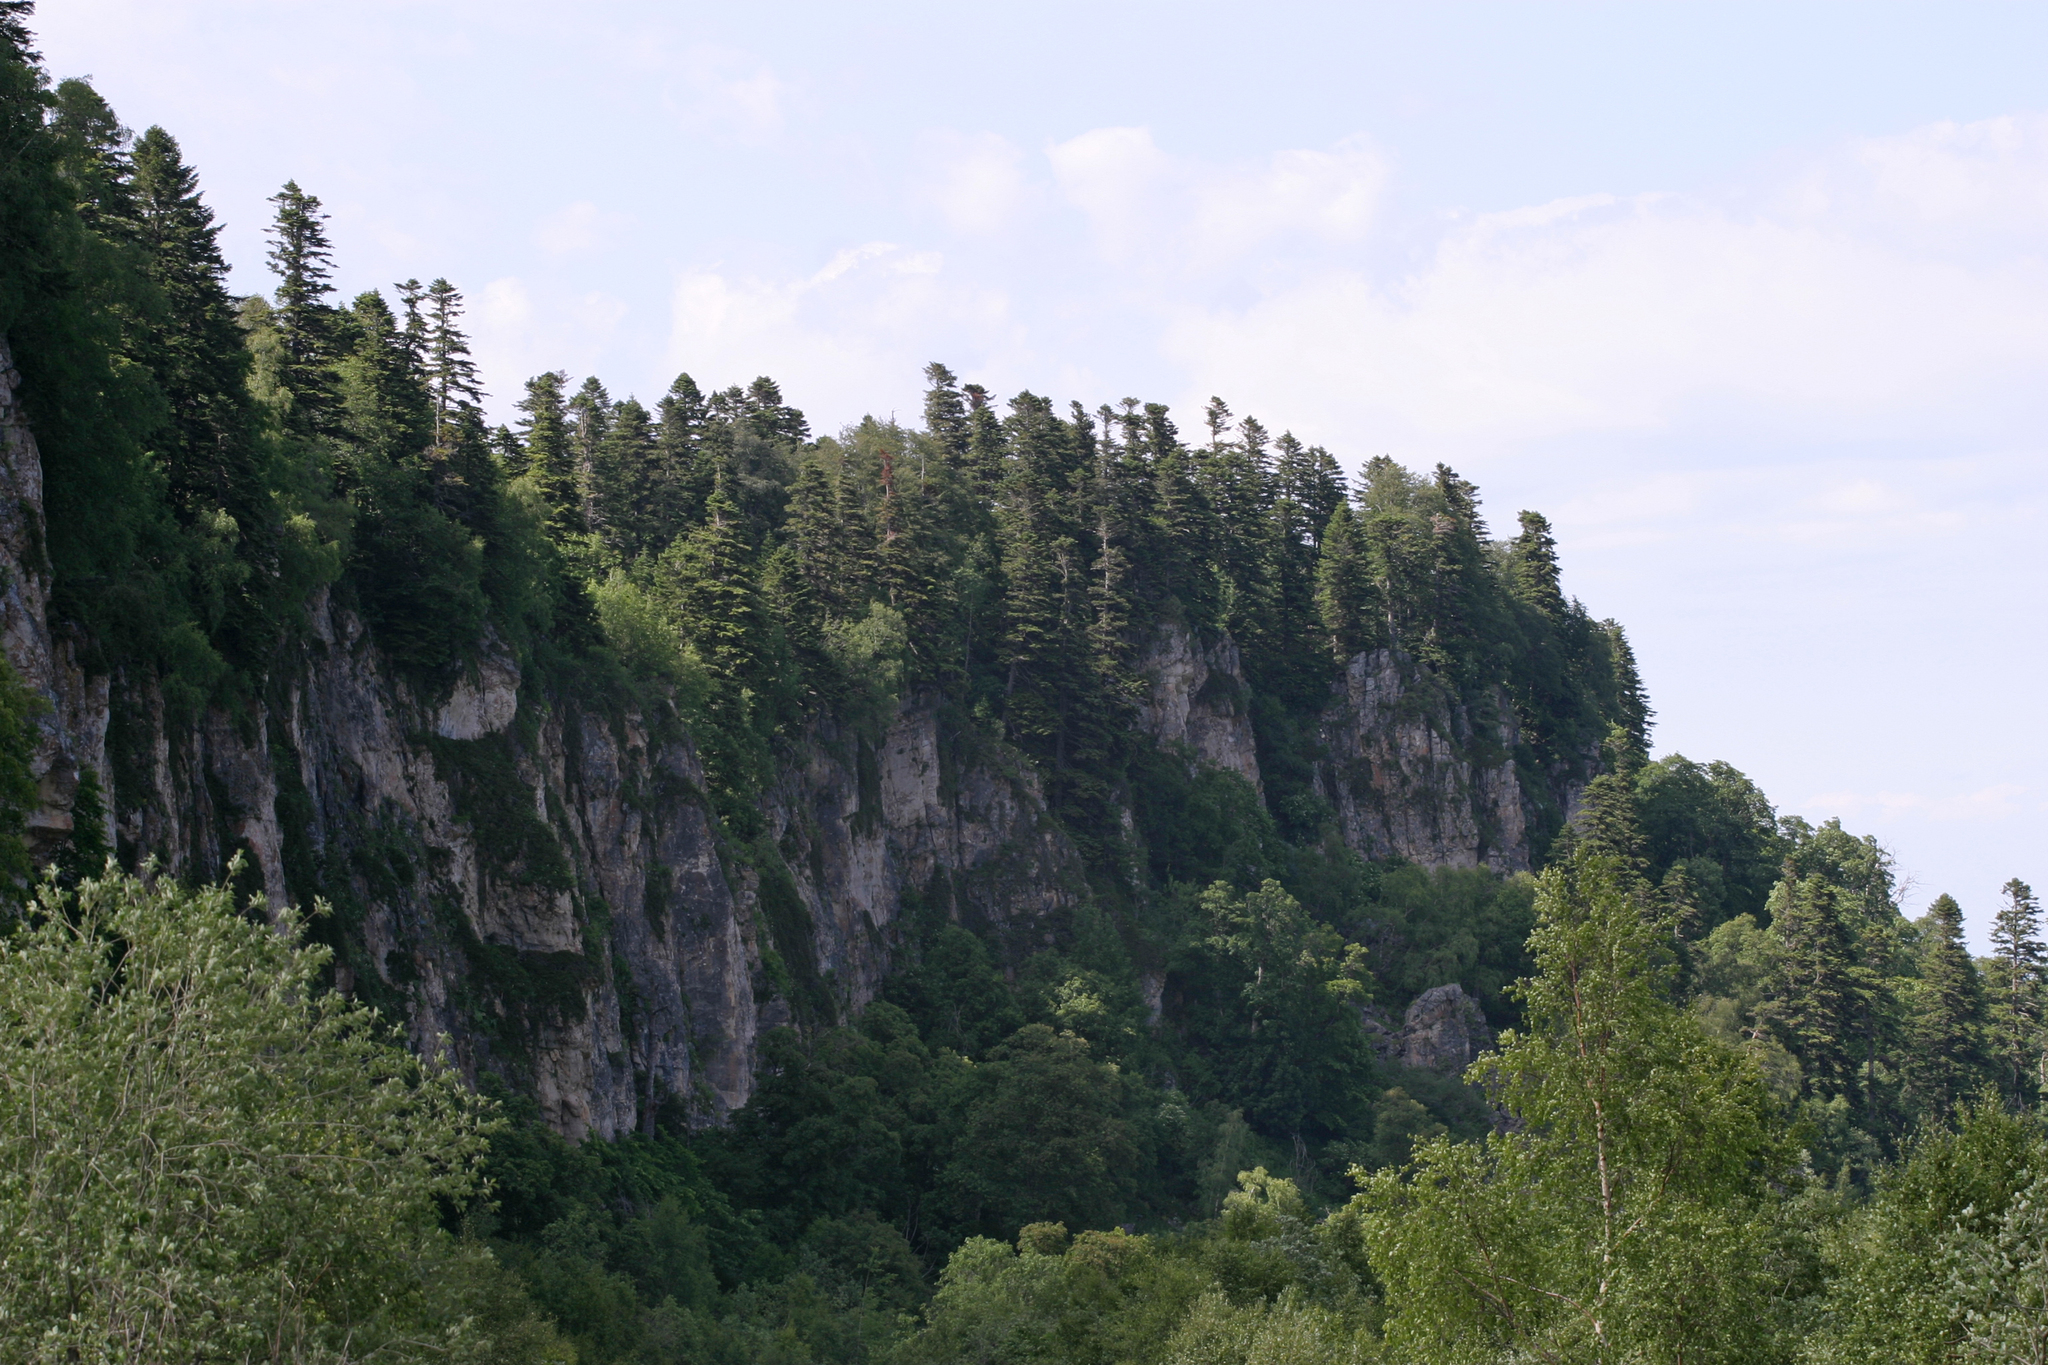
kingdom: Plantae
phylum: Tracheophyta
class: Pinopsida
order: Pinales
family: Pinaceae
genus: Pinus
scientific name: Pinus sylvestris
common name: Scots pine
